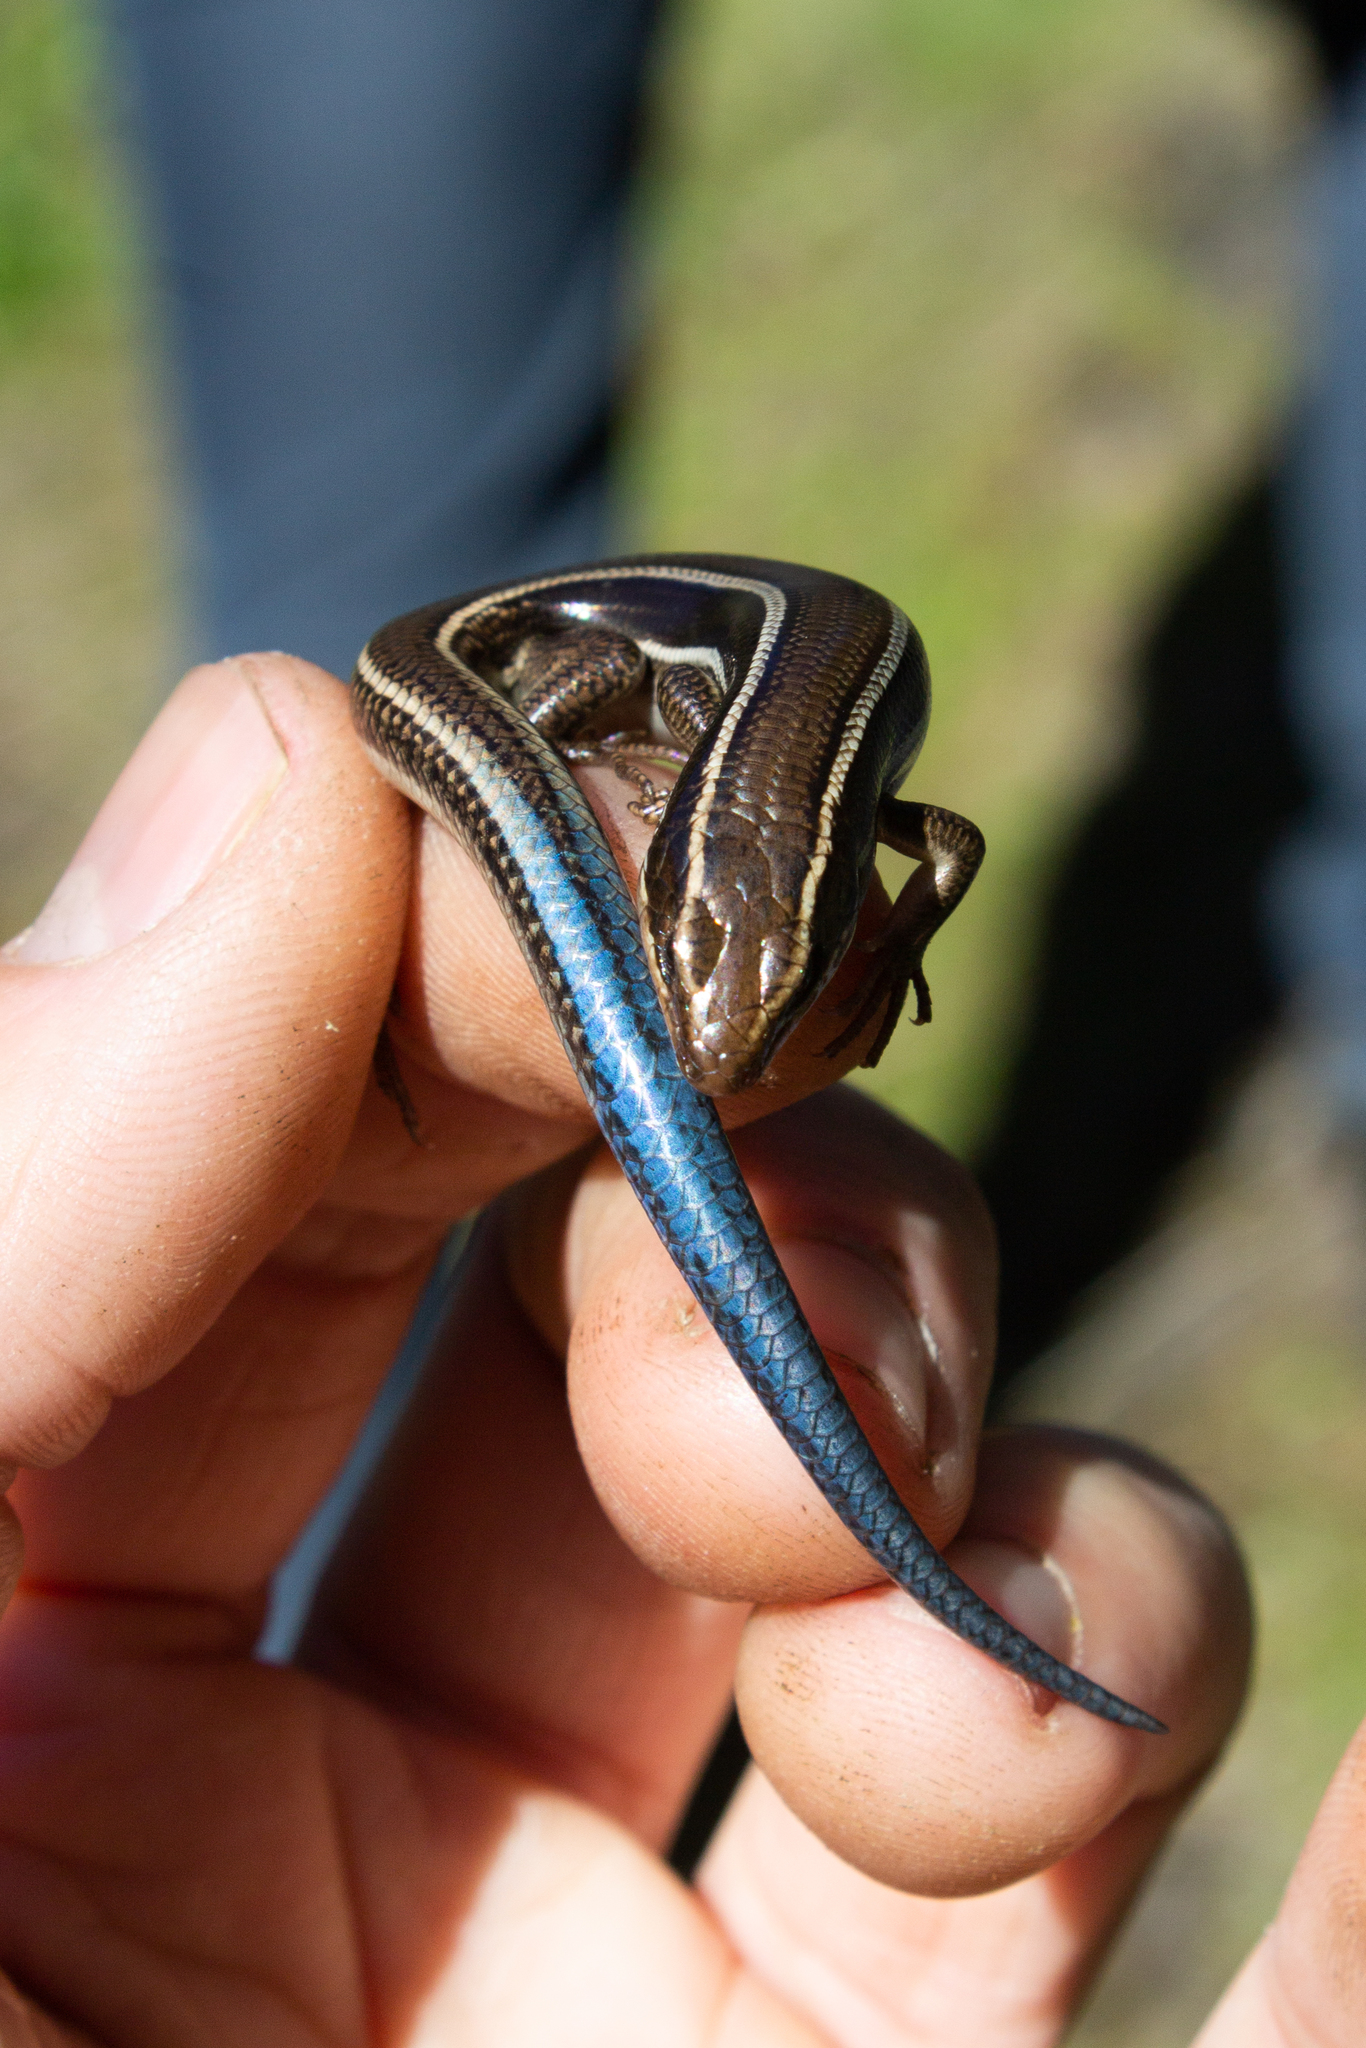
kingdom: Animalia
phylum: Chordata
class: Squamata
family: Scincidae
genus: Plestiodon
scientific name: Plestiodon skiltonianus
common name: Coronado island skink [interparietalis]
